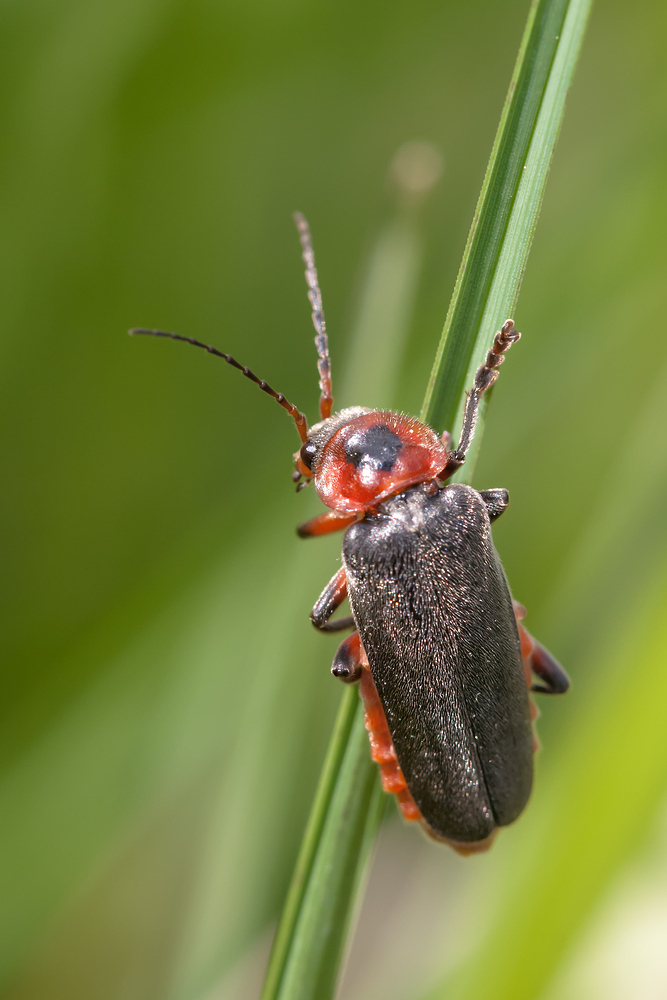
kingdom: Animalia
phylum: Arthropoda
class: Insecta
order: Coleoptera
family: Cantharidae
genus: Cantharis
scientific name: Cantharis rustica
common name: Soldier beetle
